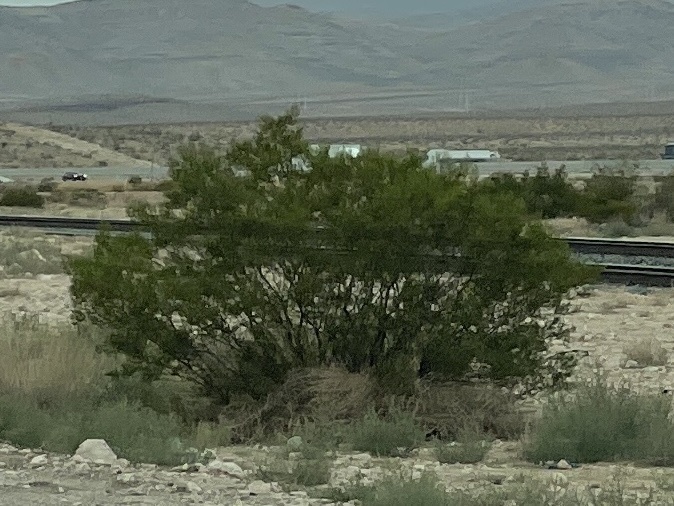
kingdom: Plantae
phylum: Tracheophyta
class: Magnoliopsida
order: Zygophyllales
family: Zygophyllaceae
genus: Larrea
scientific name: Larrea tridentata
